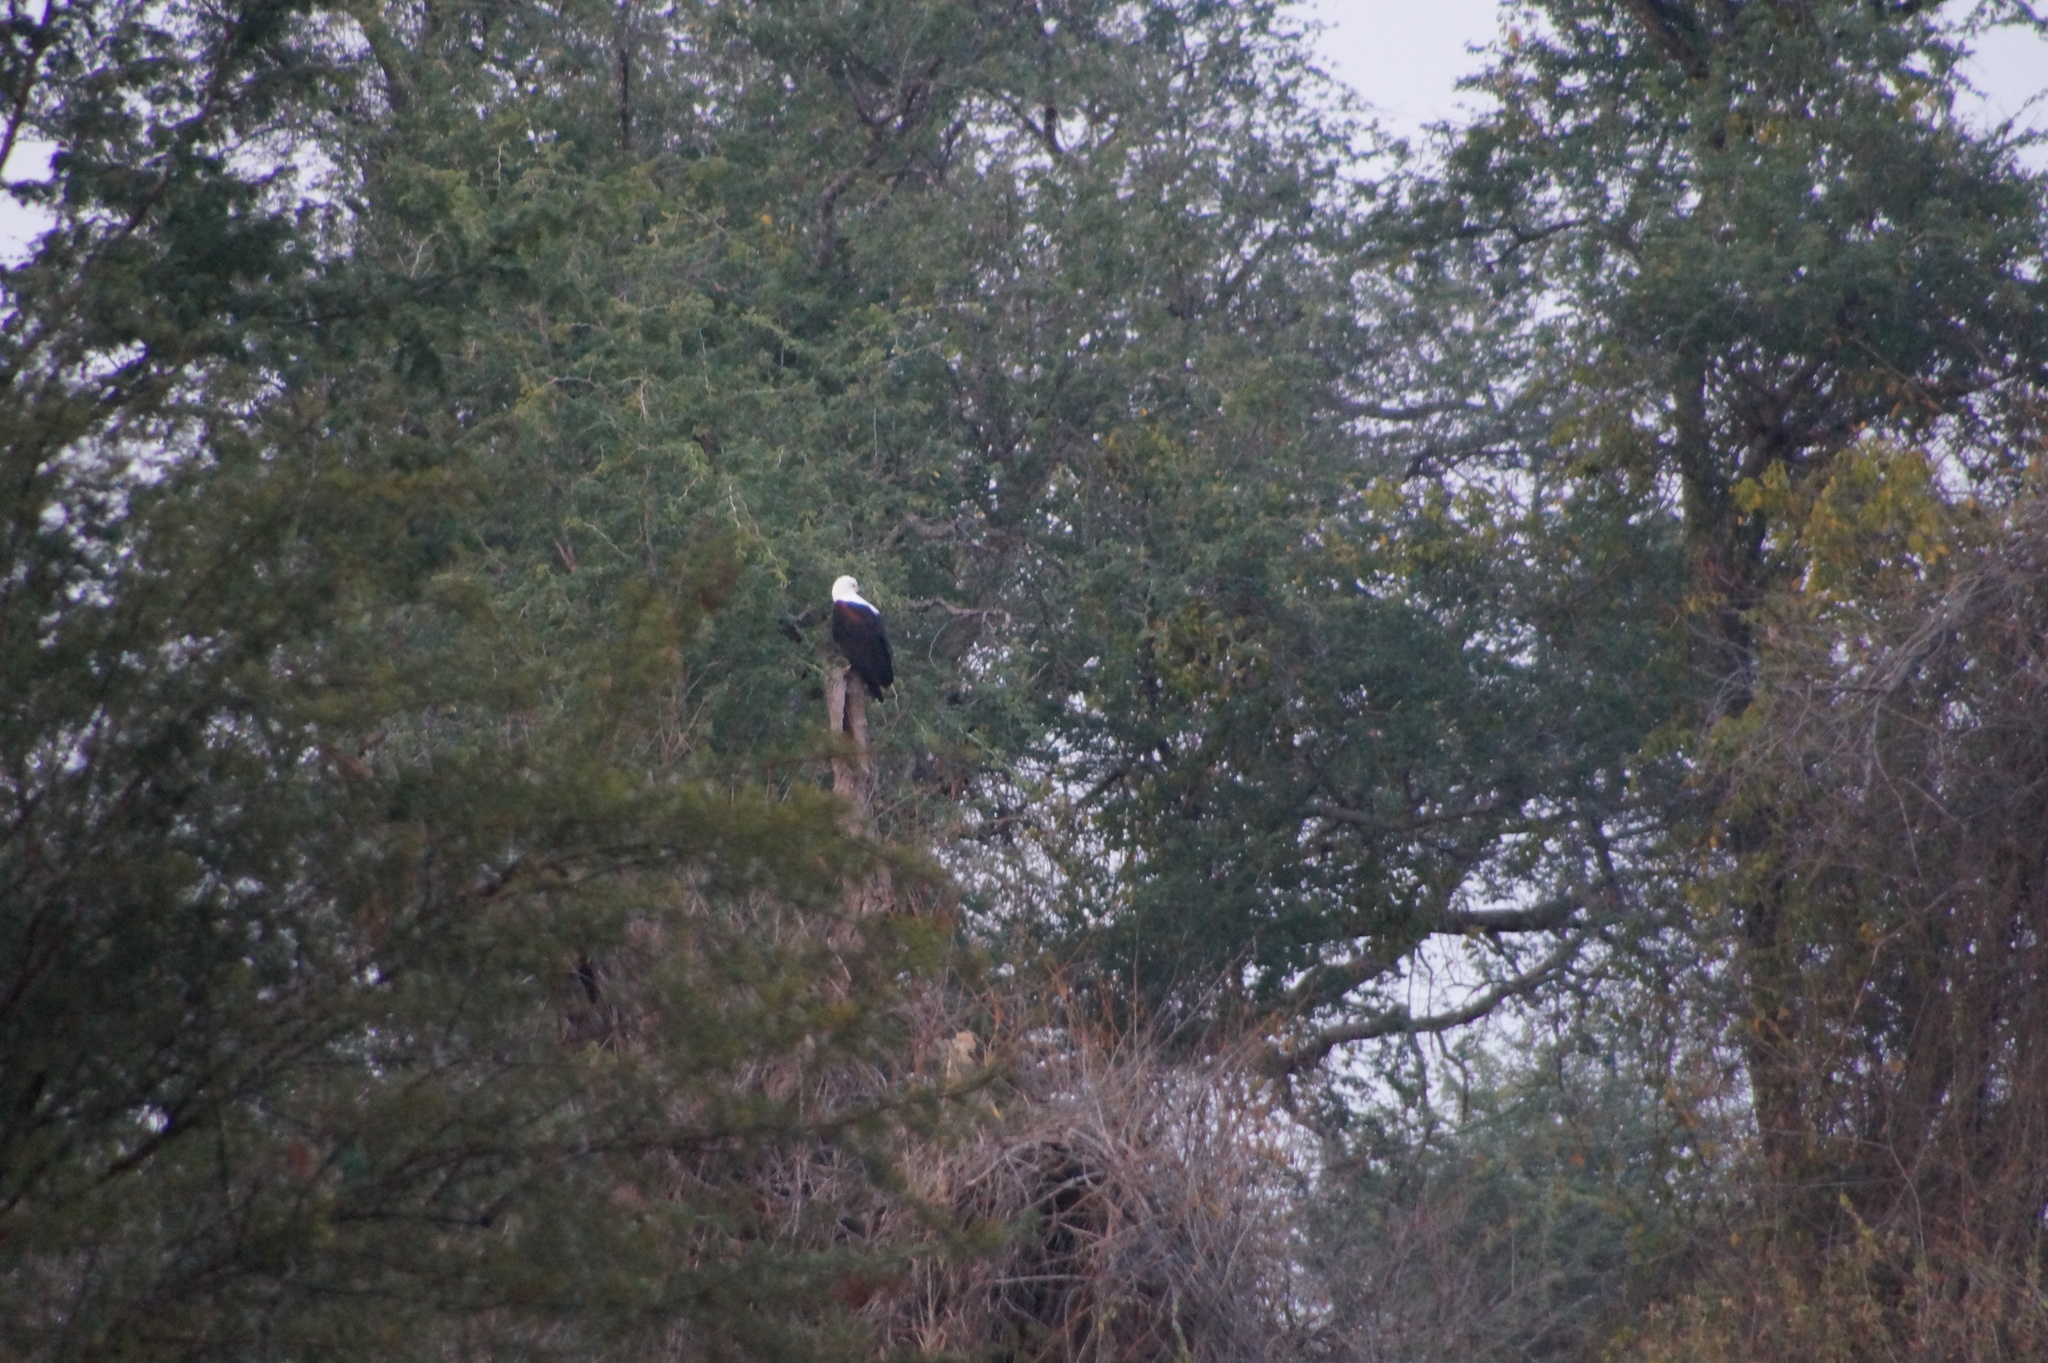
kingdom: Animalia
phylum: Chordata
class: Aves
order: Accipitriformes
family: Accipitridae
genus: Haliaeetus
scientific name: Haliaeetus vocifer
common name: African fish eagle
